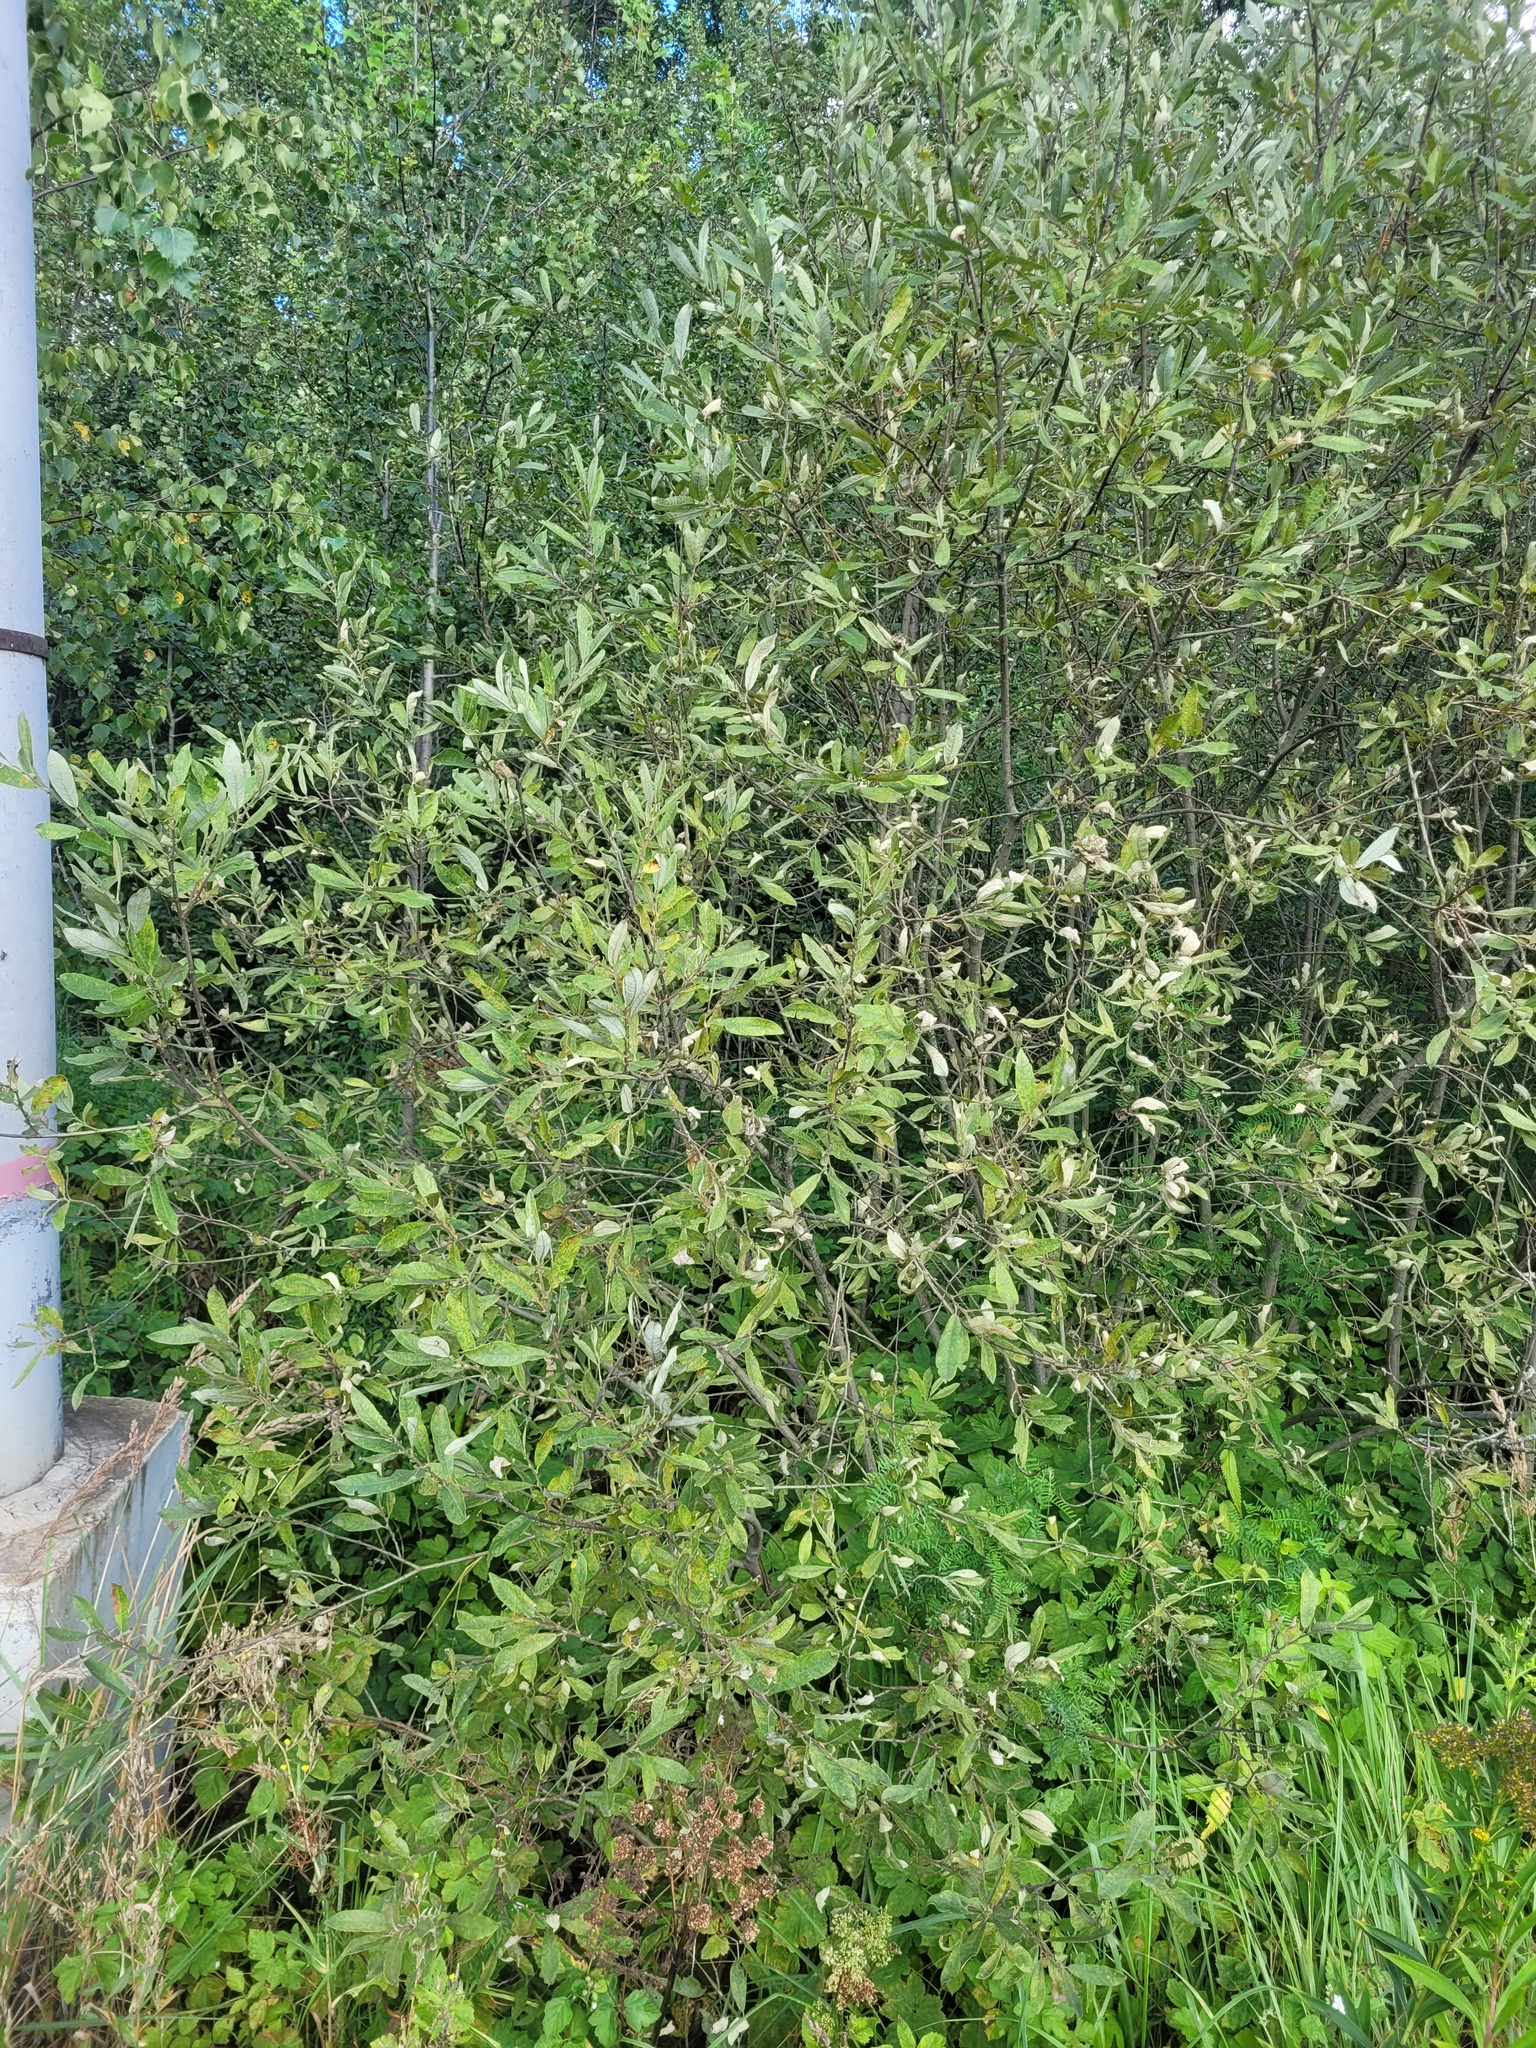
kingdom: Plantae
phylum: Tracheophyta
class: Magnoliopsida
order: Malpighiales
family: Salicaceae
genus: Salix
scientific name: Salix cinerea
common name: Common sallow
